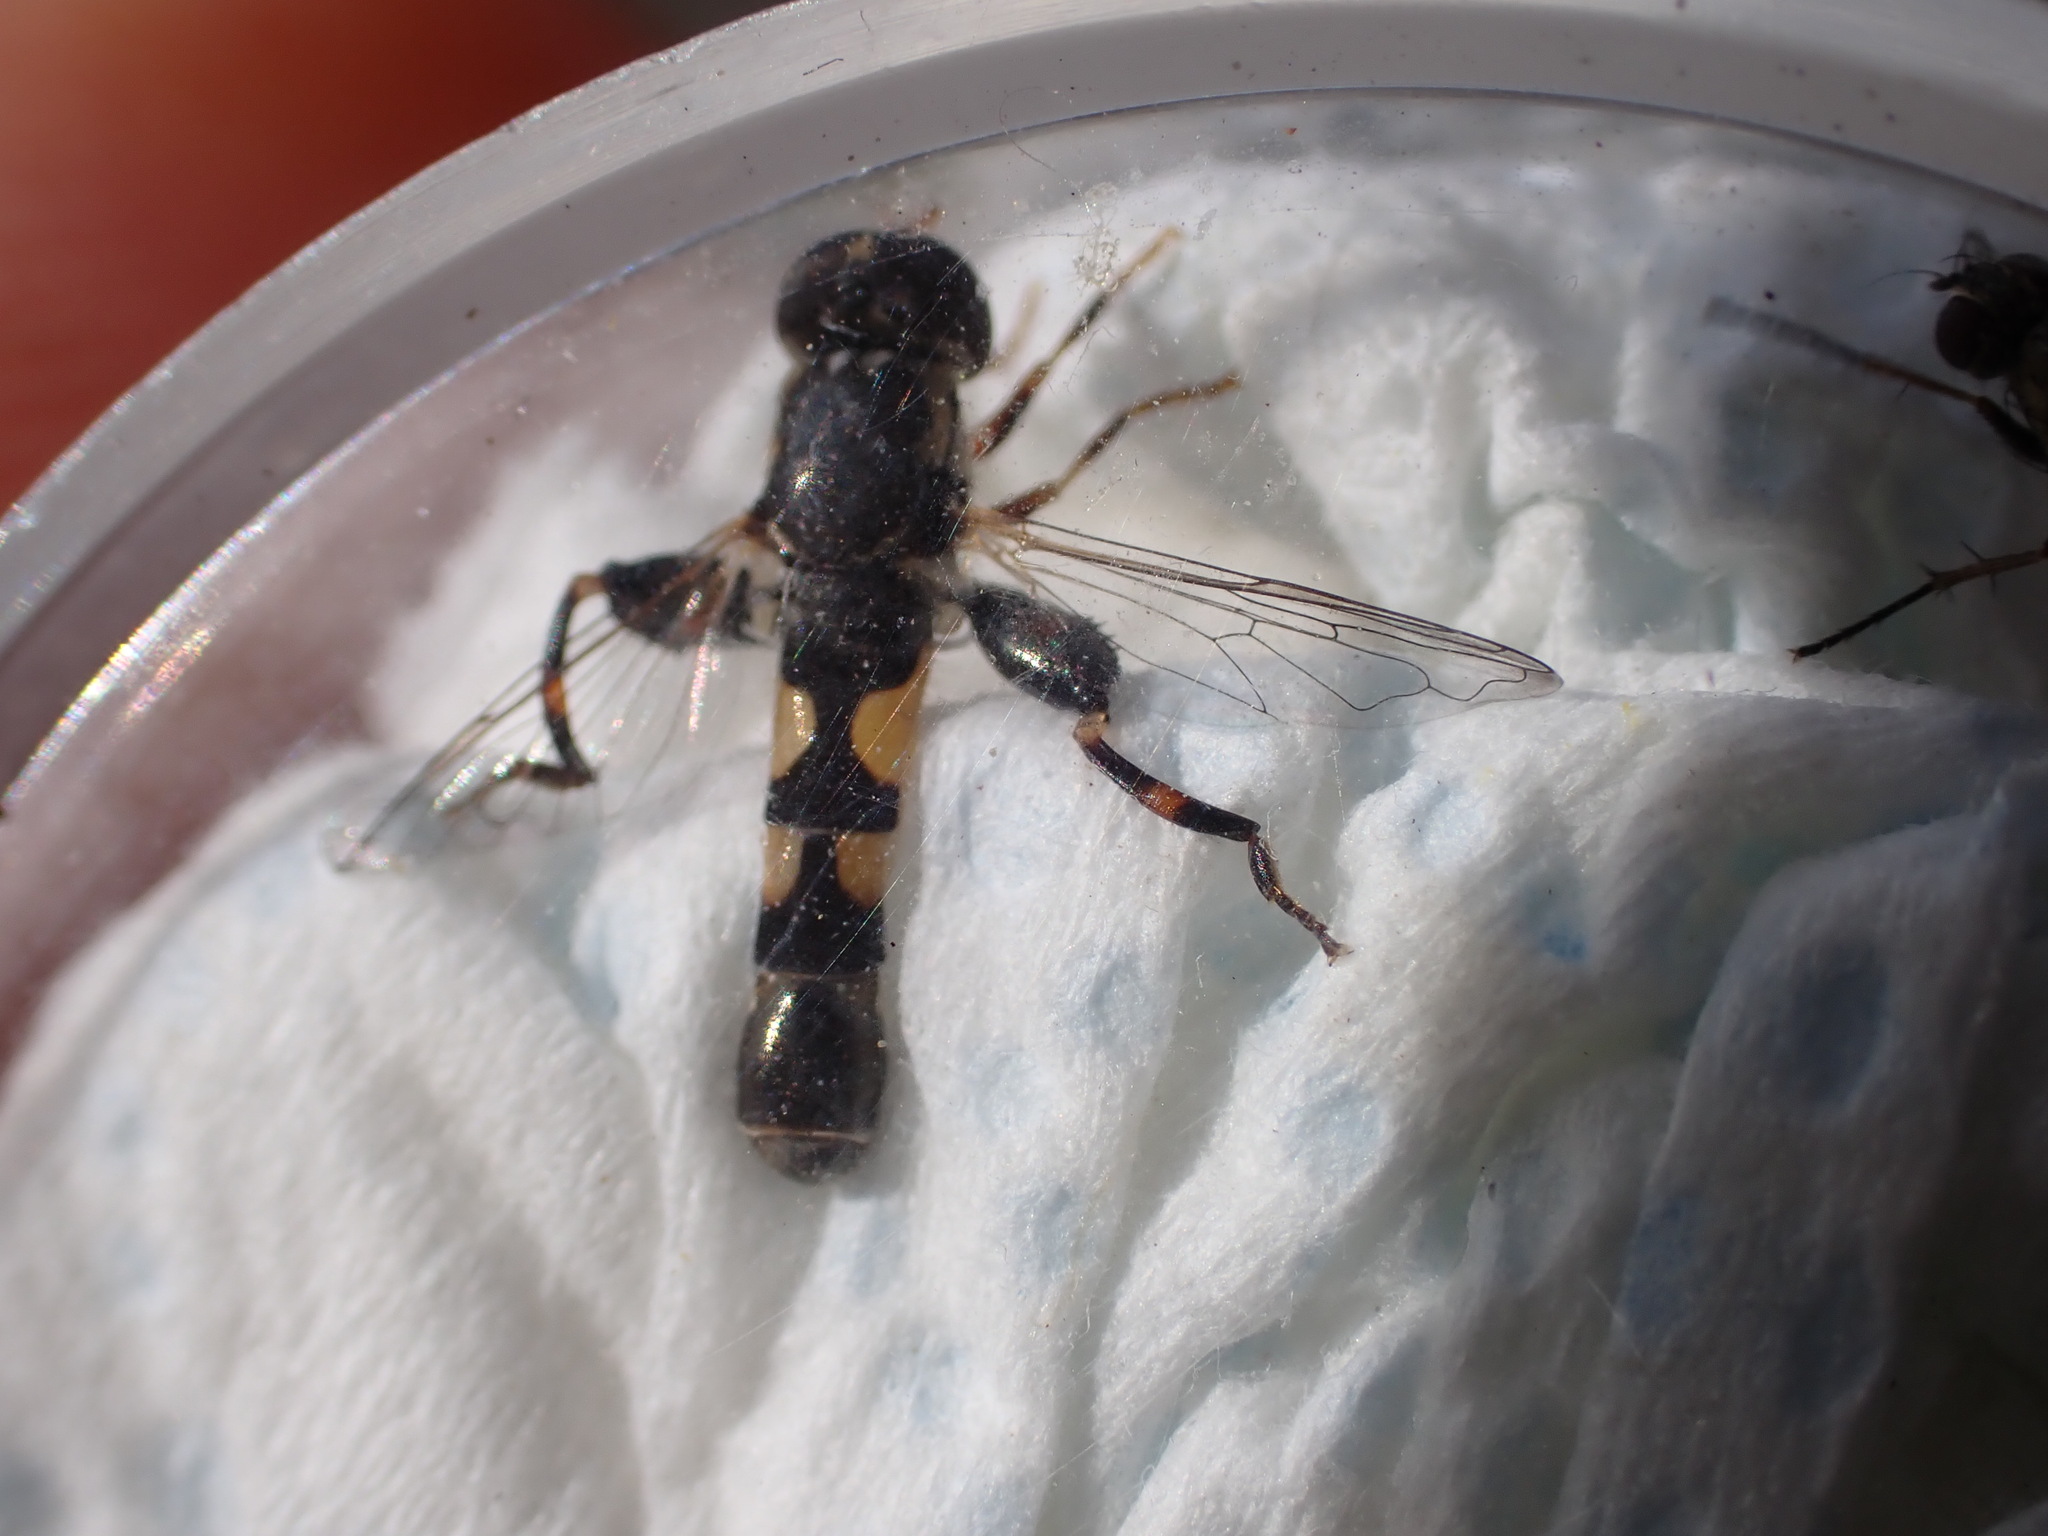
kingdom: Animalia
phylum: Arthropoda
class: Insecta
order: Diptera
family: Syrphidae
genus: Syritta
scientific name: Syritta pipiens
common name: Hover fly
